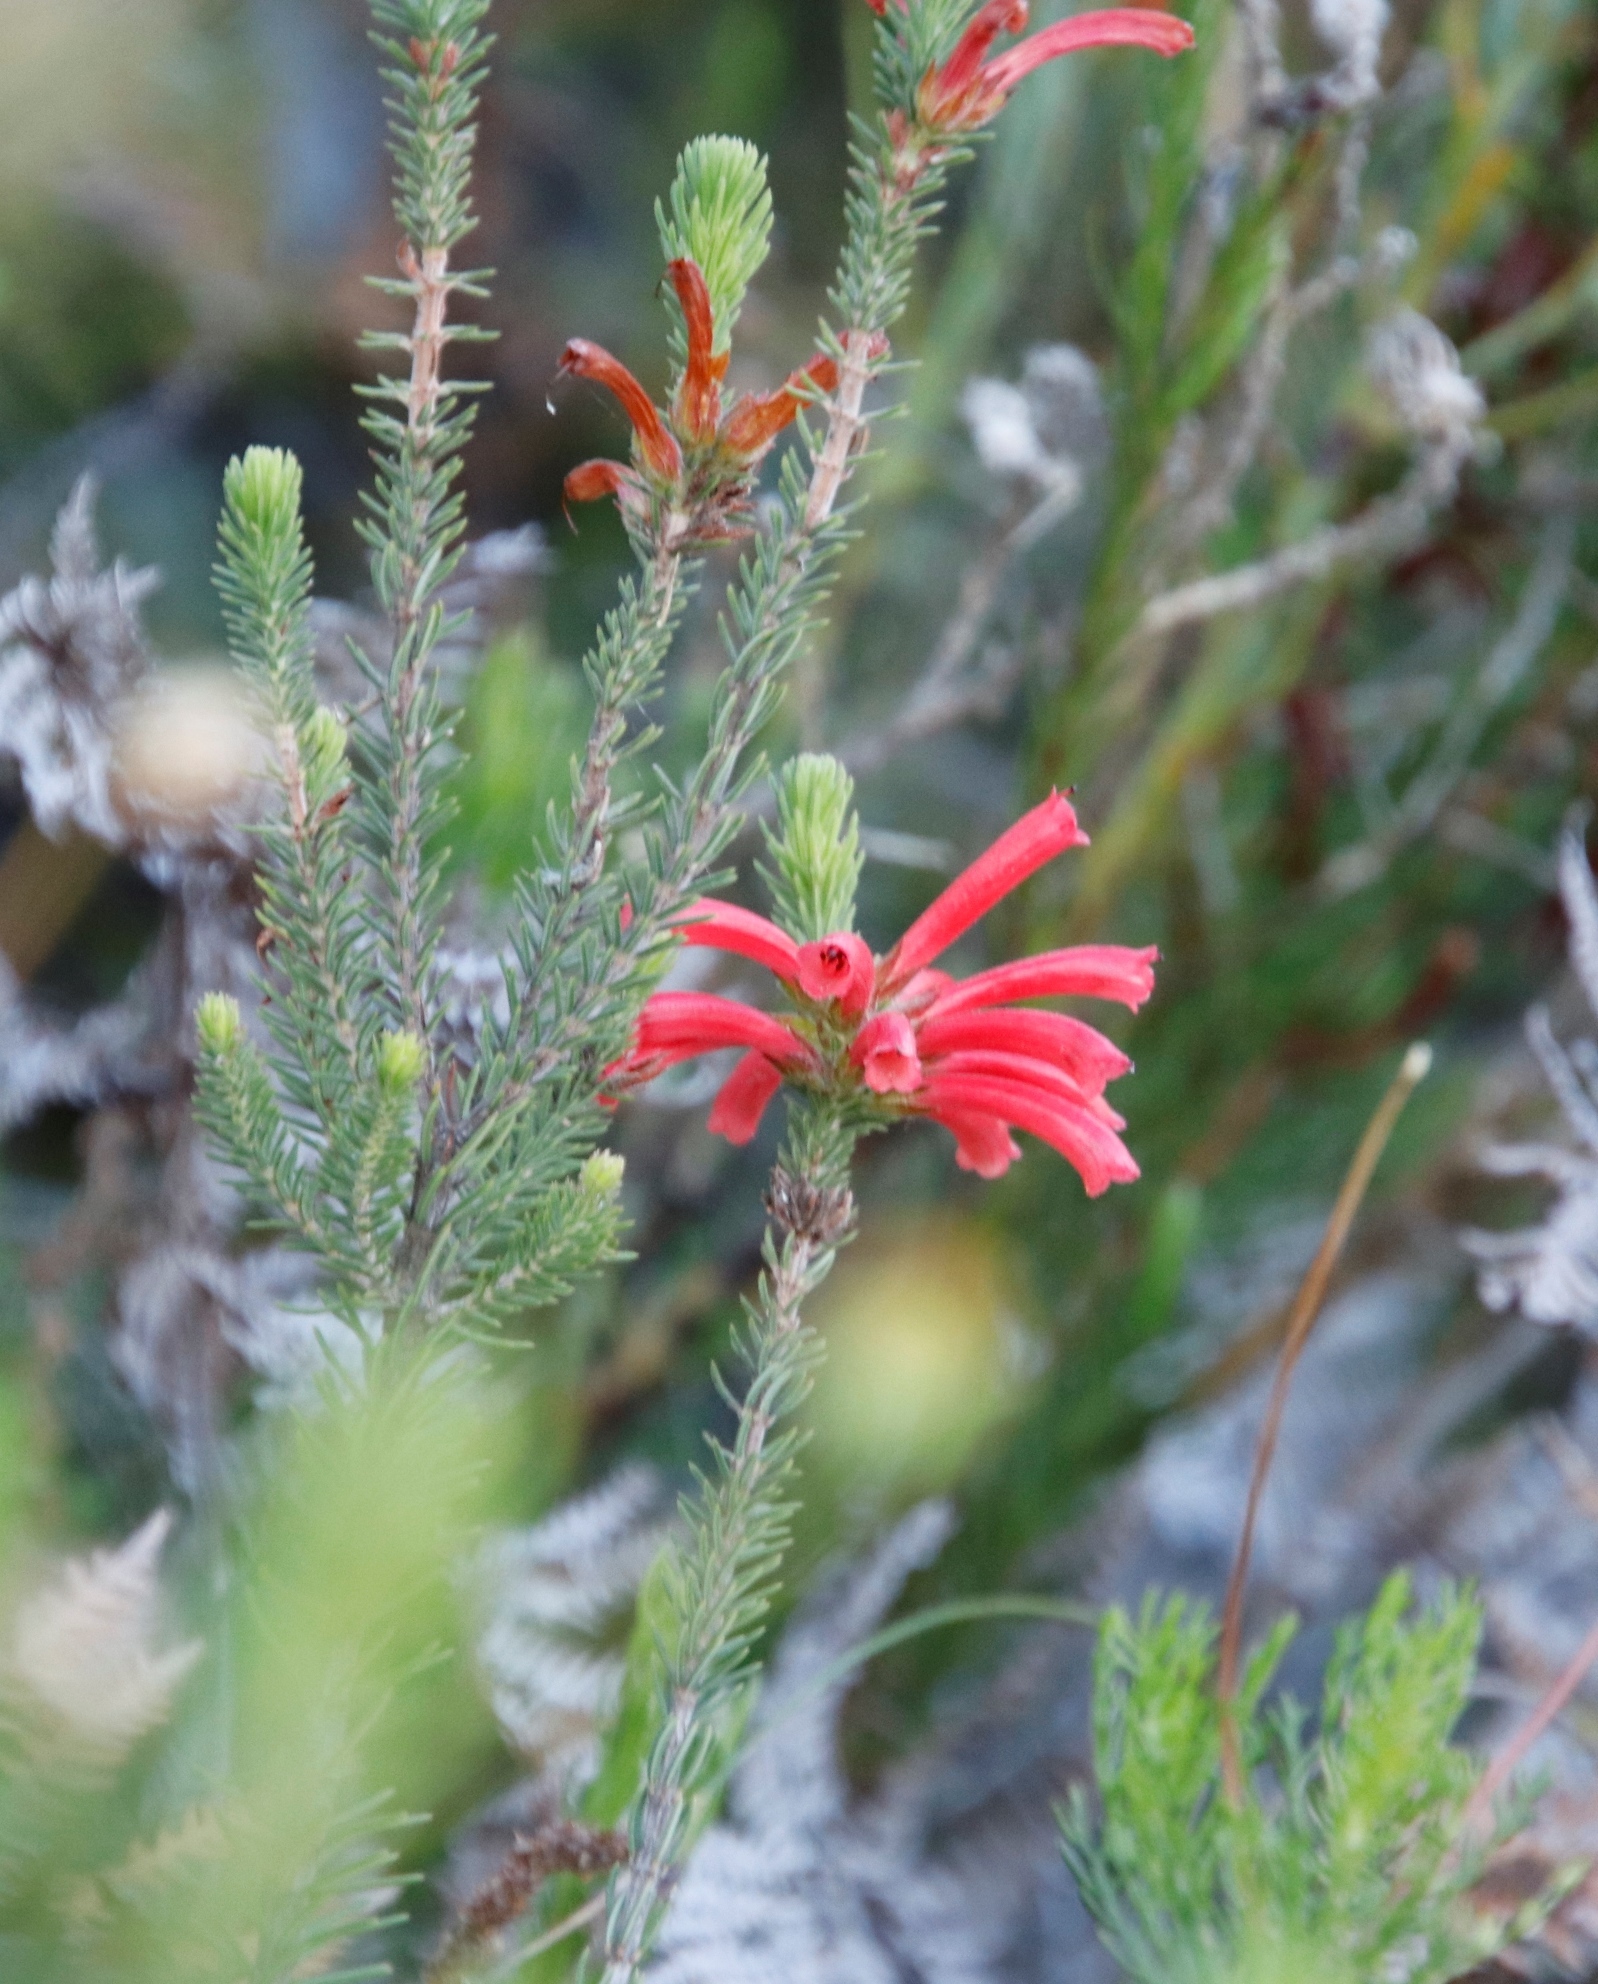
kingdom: Plantae
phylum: Tracheophyta
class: Magnoliopsida
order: Ericales
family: Ericaceae
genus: Erica
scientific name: Erica abietina
